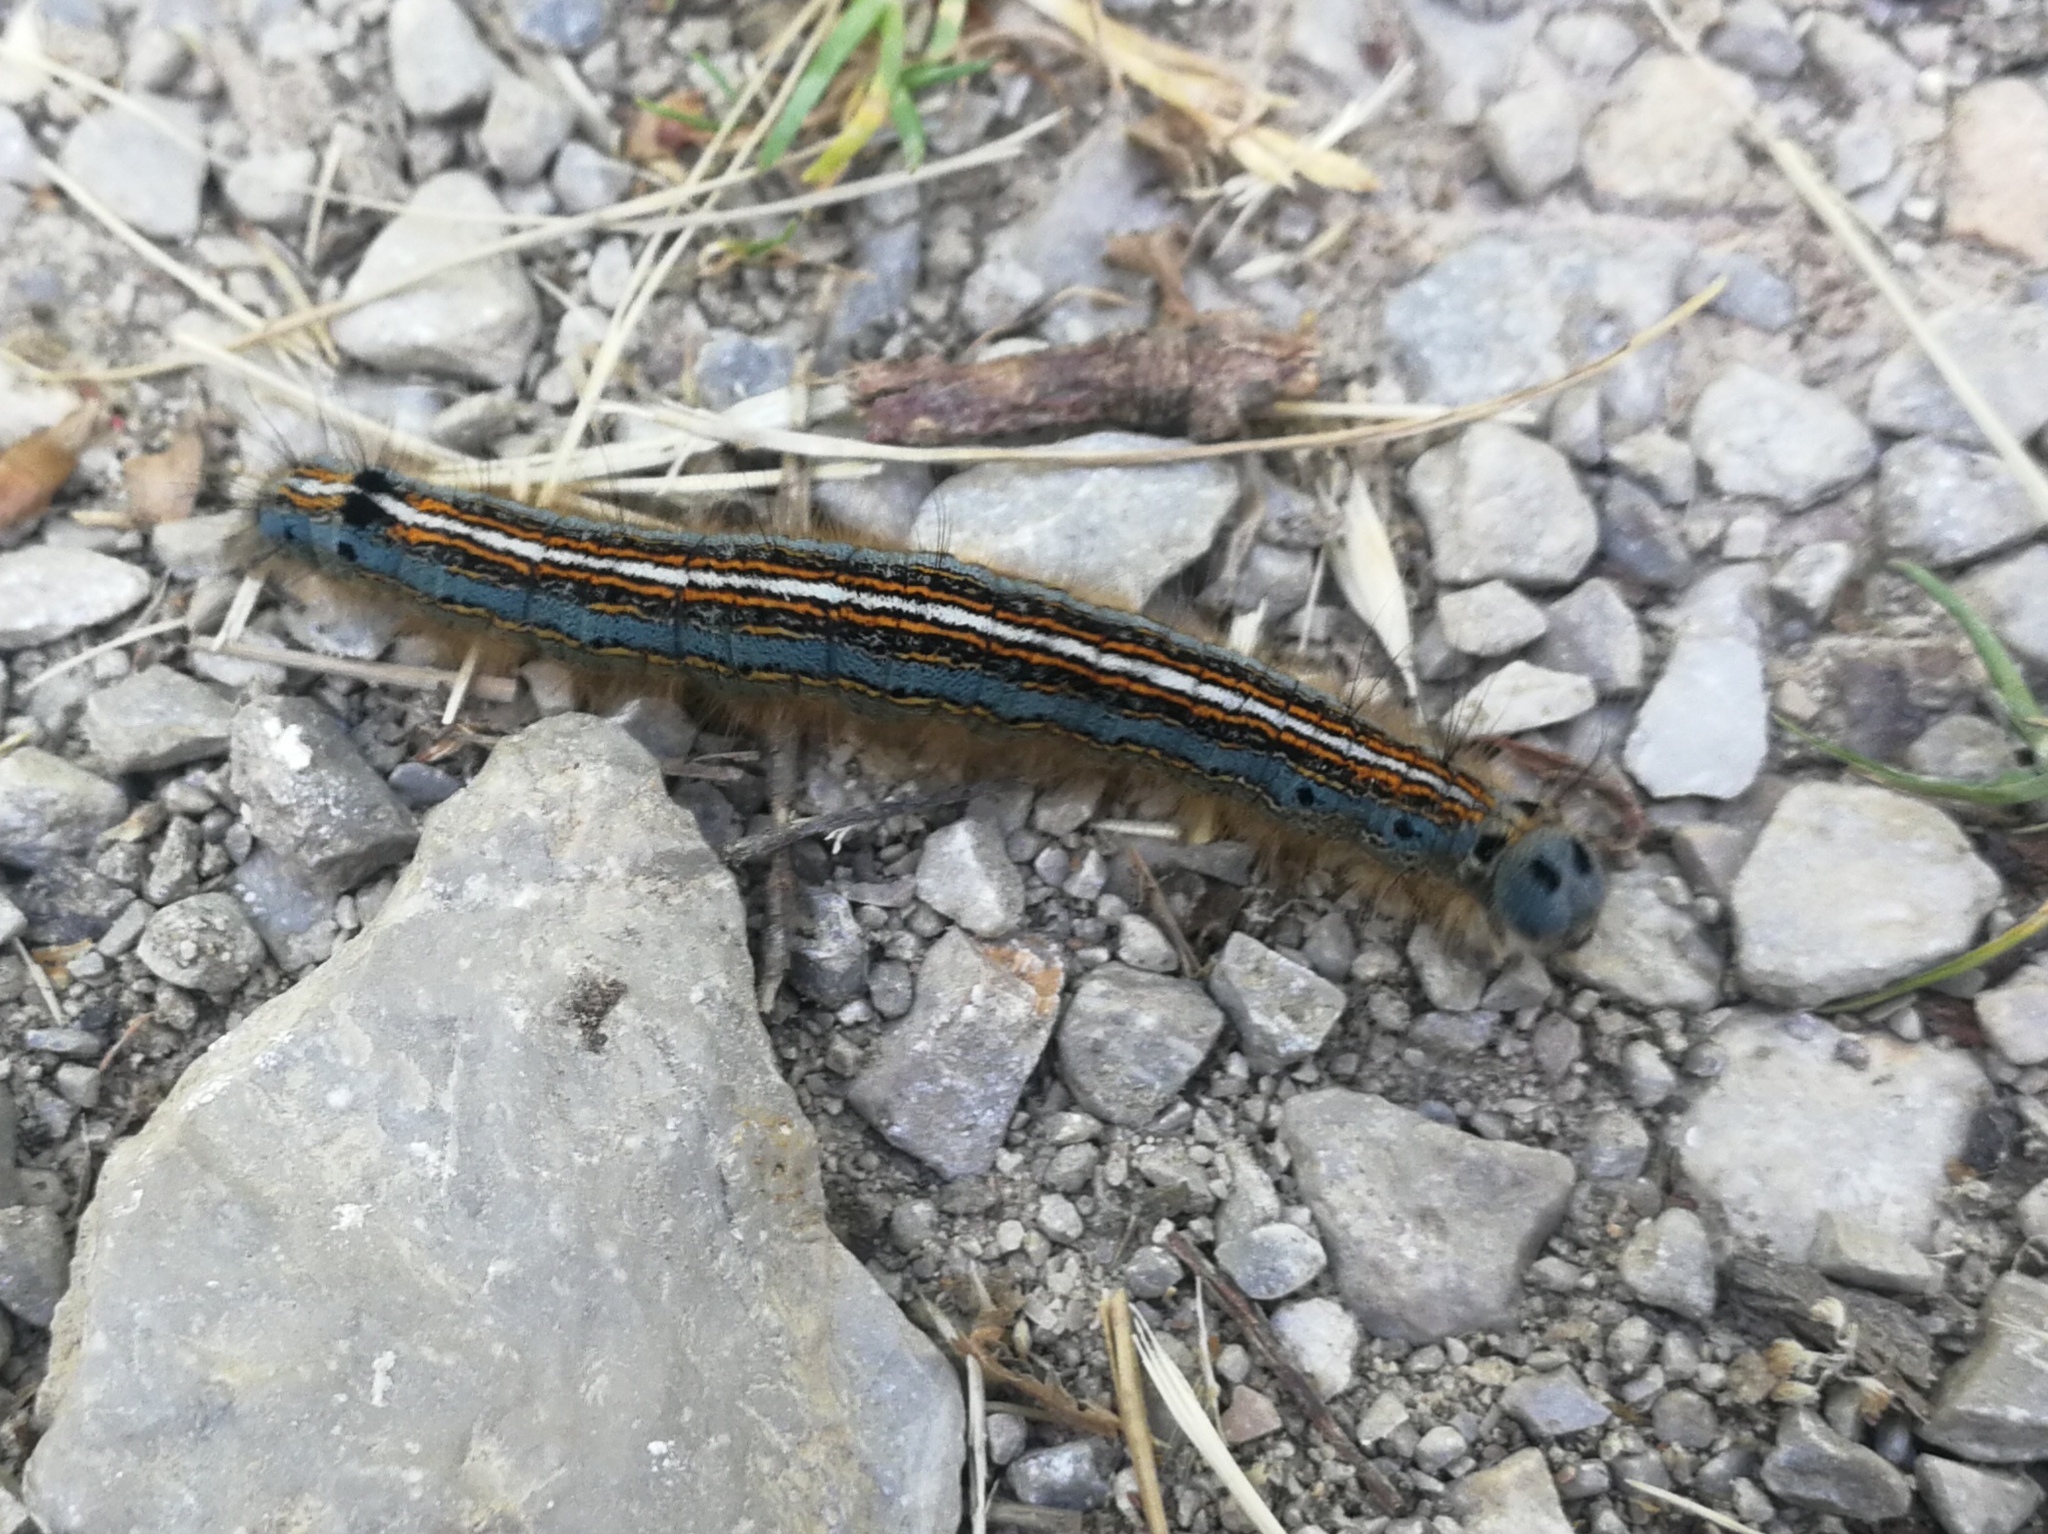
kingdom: Animalia
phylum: Arthropoda
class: Insecta
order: Lepidoptera
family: Lasiocampidae
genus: Malacosoma
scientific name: Malacosoma neustria
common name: The lackey
